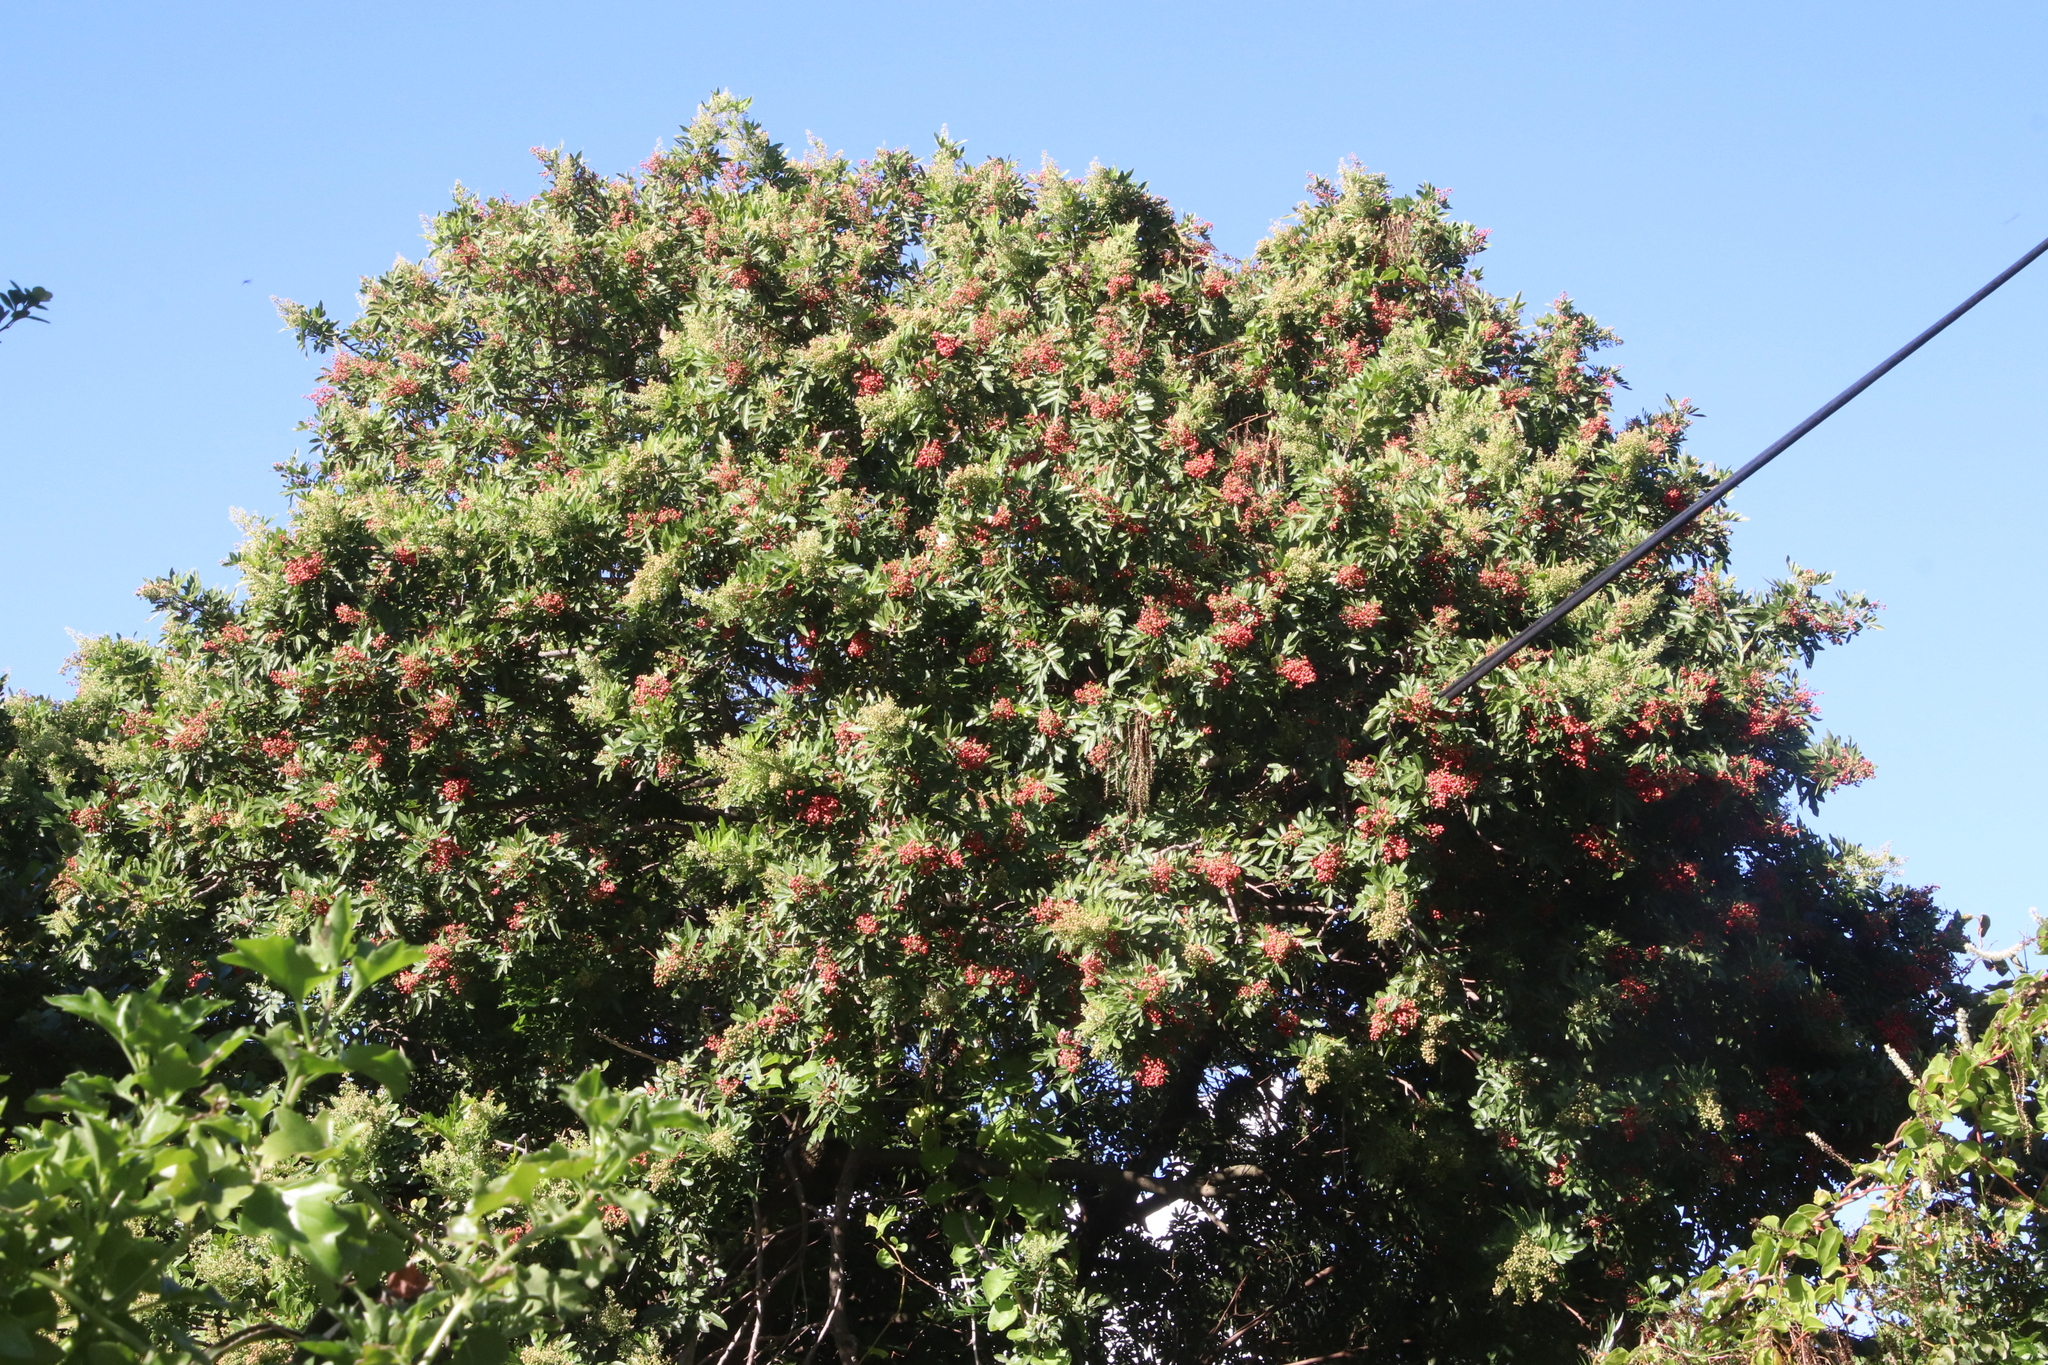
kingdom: Plantae
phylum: Tracheophyta
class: Magnoliopsida
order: Sapindales
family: Anacardiaceae
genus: Schinus
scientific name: Schinus terebinthifolia
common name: Brazilian peppertree
